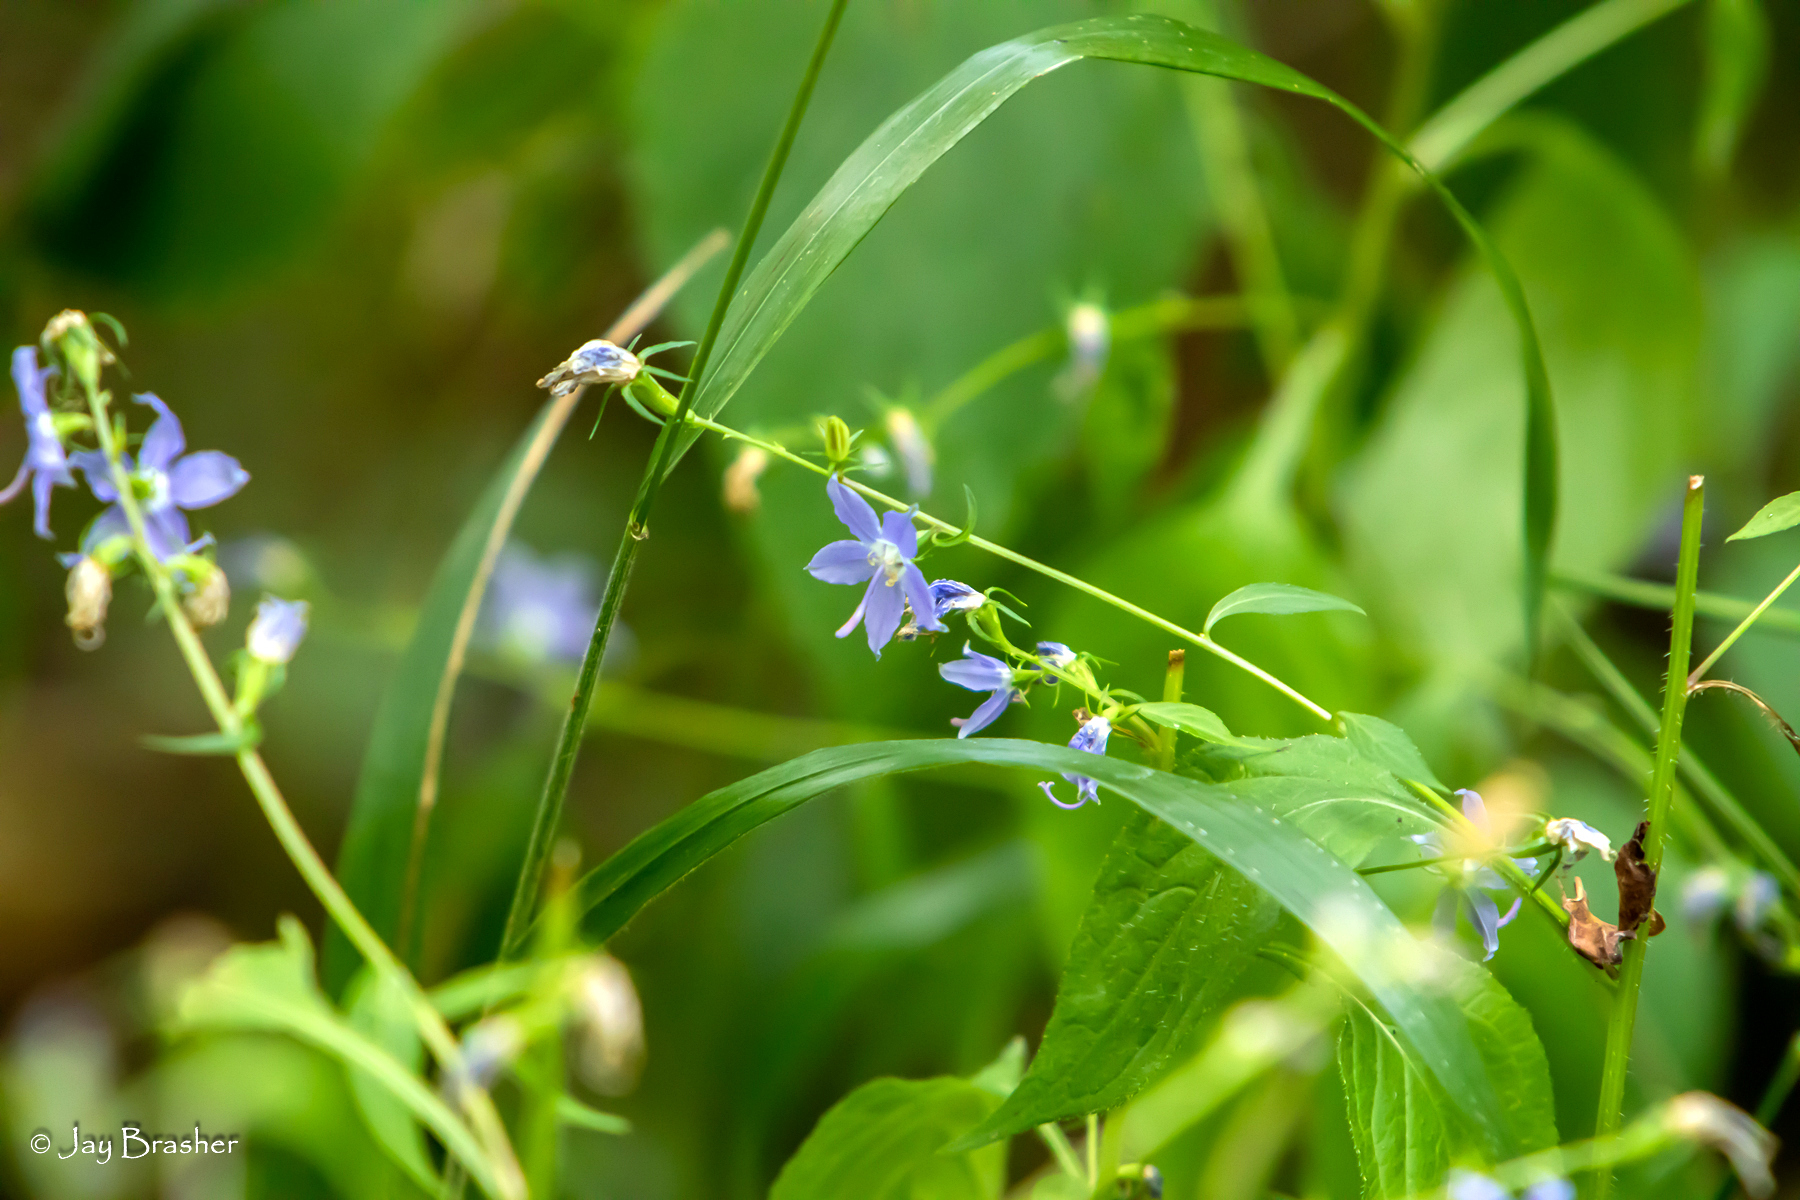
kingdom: Plantae
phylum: Tracheophyta
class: Magnoliopsida
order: Asterales
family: Campanulaceae
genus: Campanulastrum
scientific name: Campanulastrum americanum
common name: American bellflower
